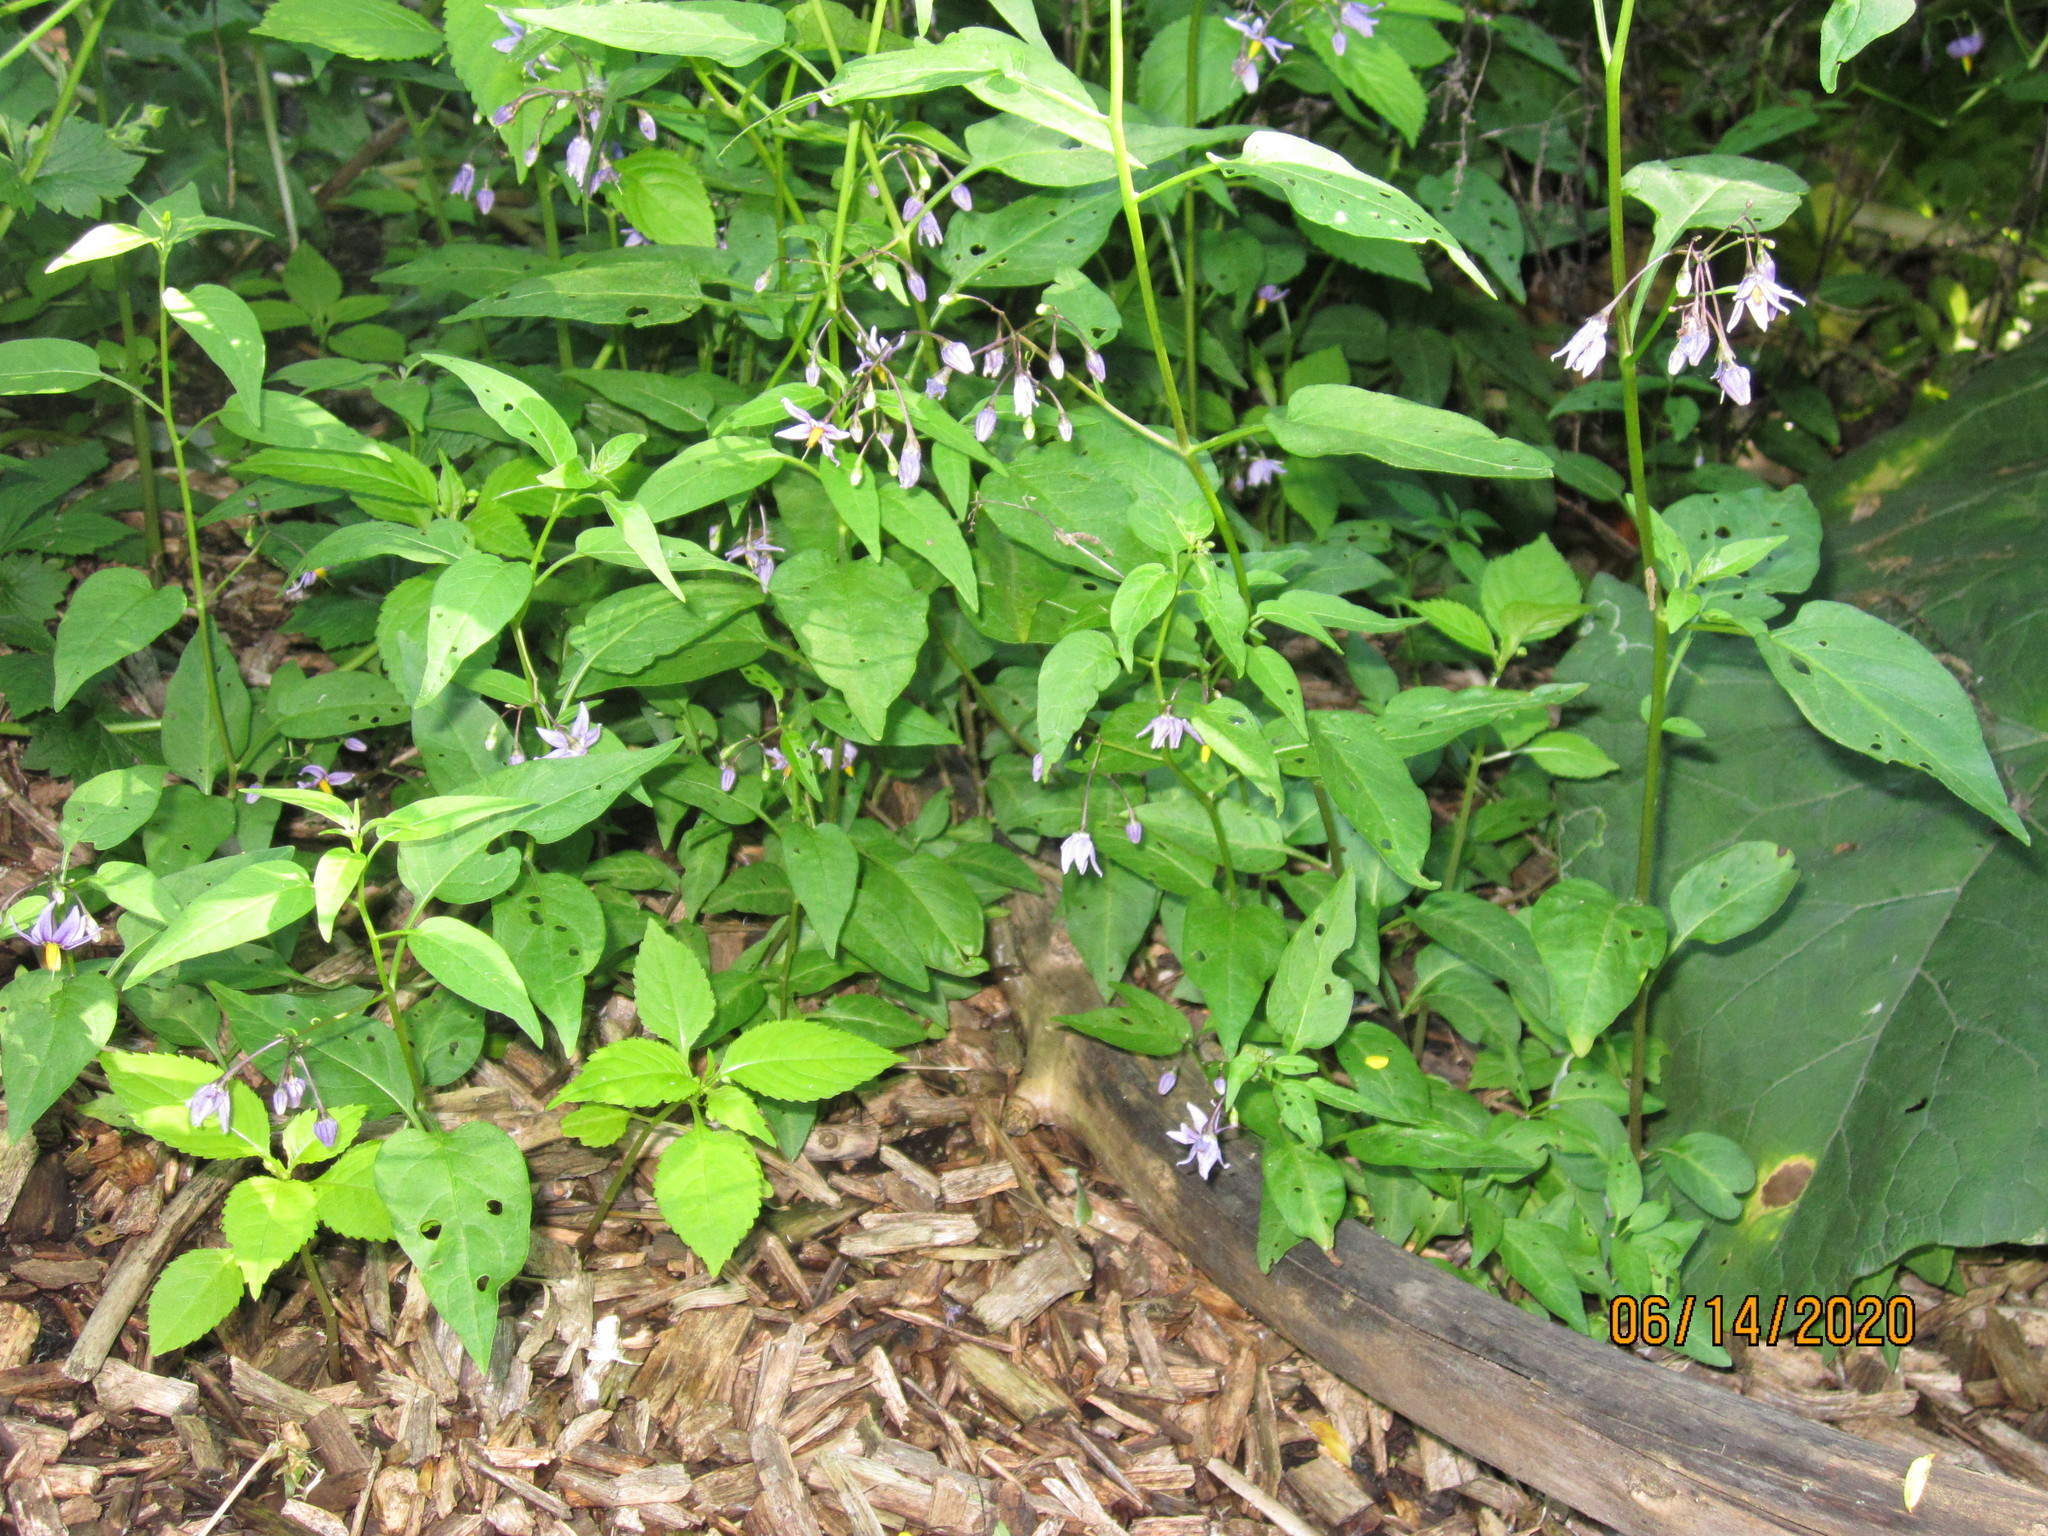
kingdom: Plantae
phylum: Tracheophyta
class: Magnoliopsida
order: Solanales
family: Solanaceae
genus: Solanum
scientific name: Solanum dulcamara
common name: Climbing nightshade
